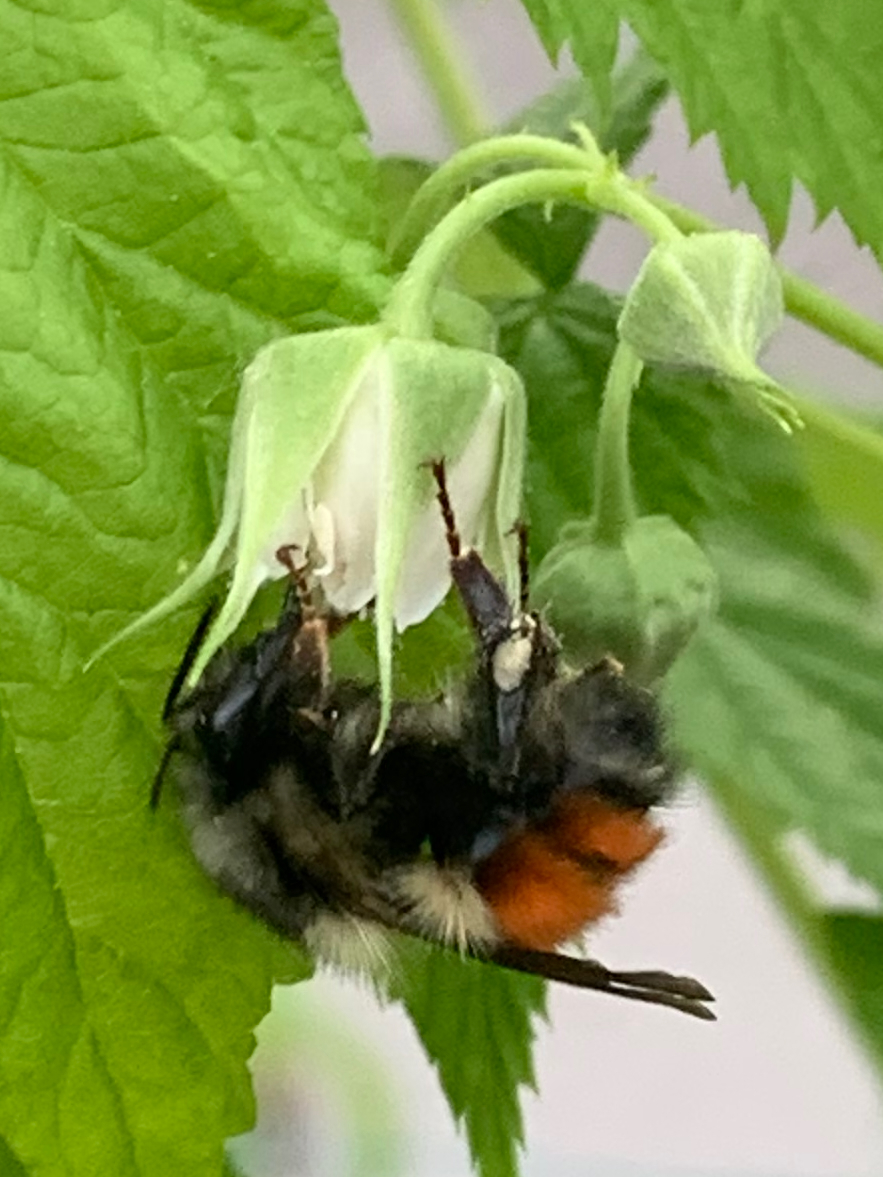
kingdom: Animalia
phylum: Arthropoda
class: Insecta
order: Hymenoptera
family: Apidae
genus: Bombus
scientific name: Bombus melanopygus
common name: Black tail bumble bee
